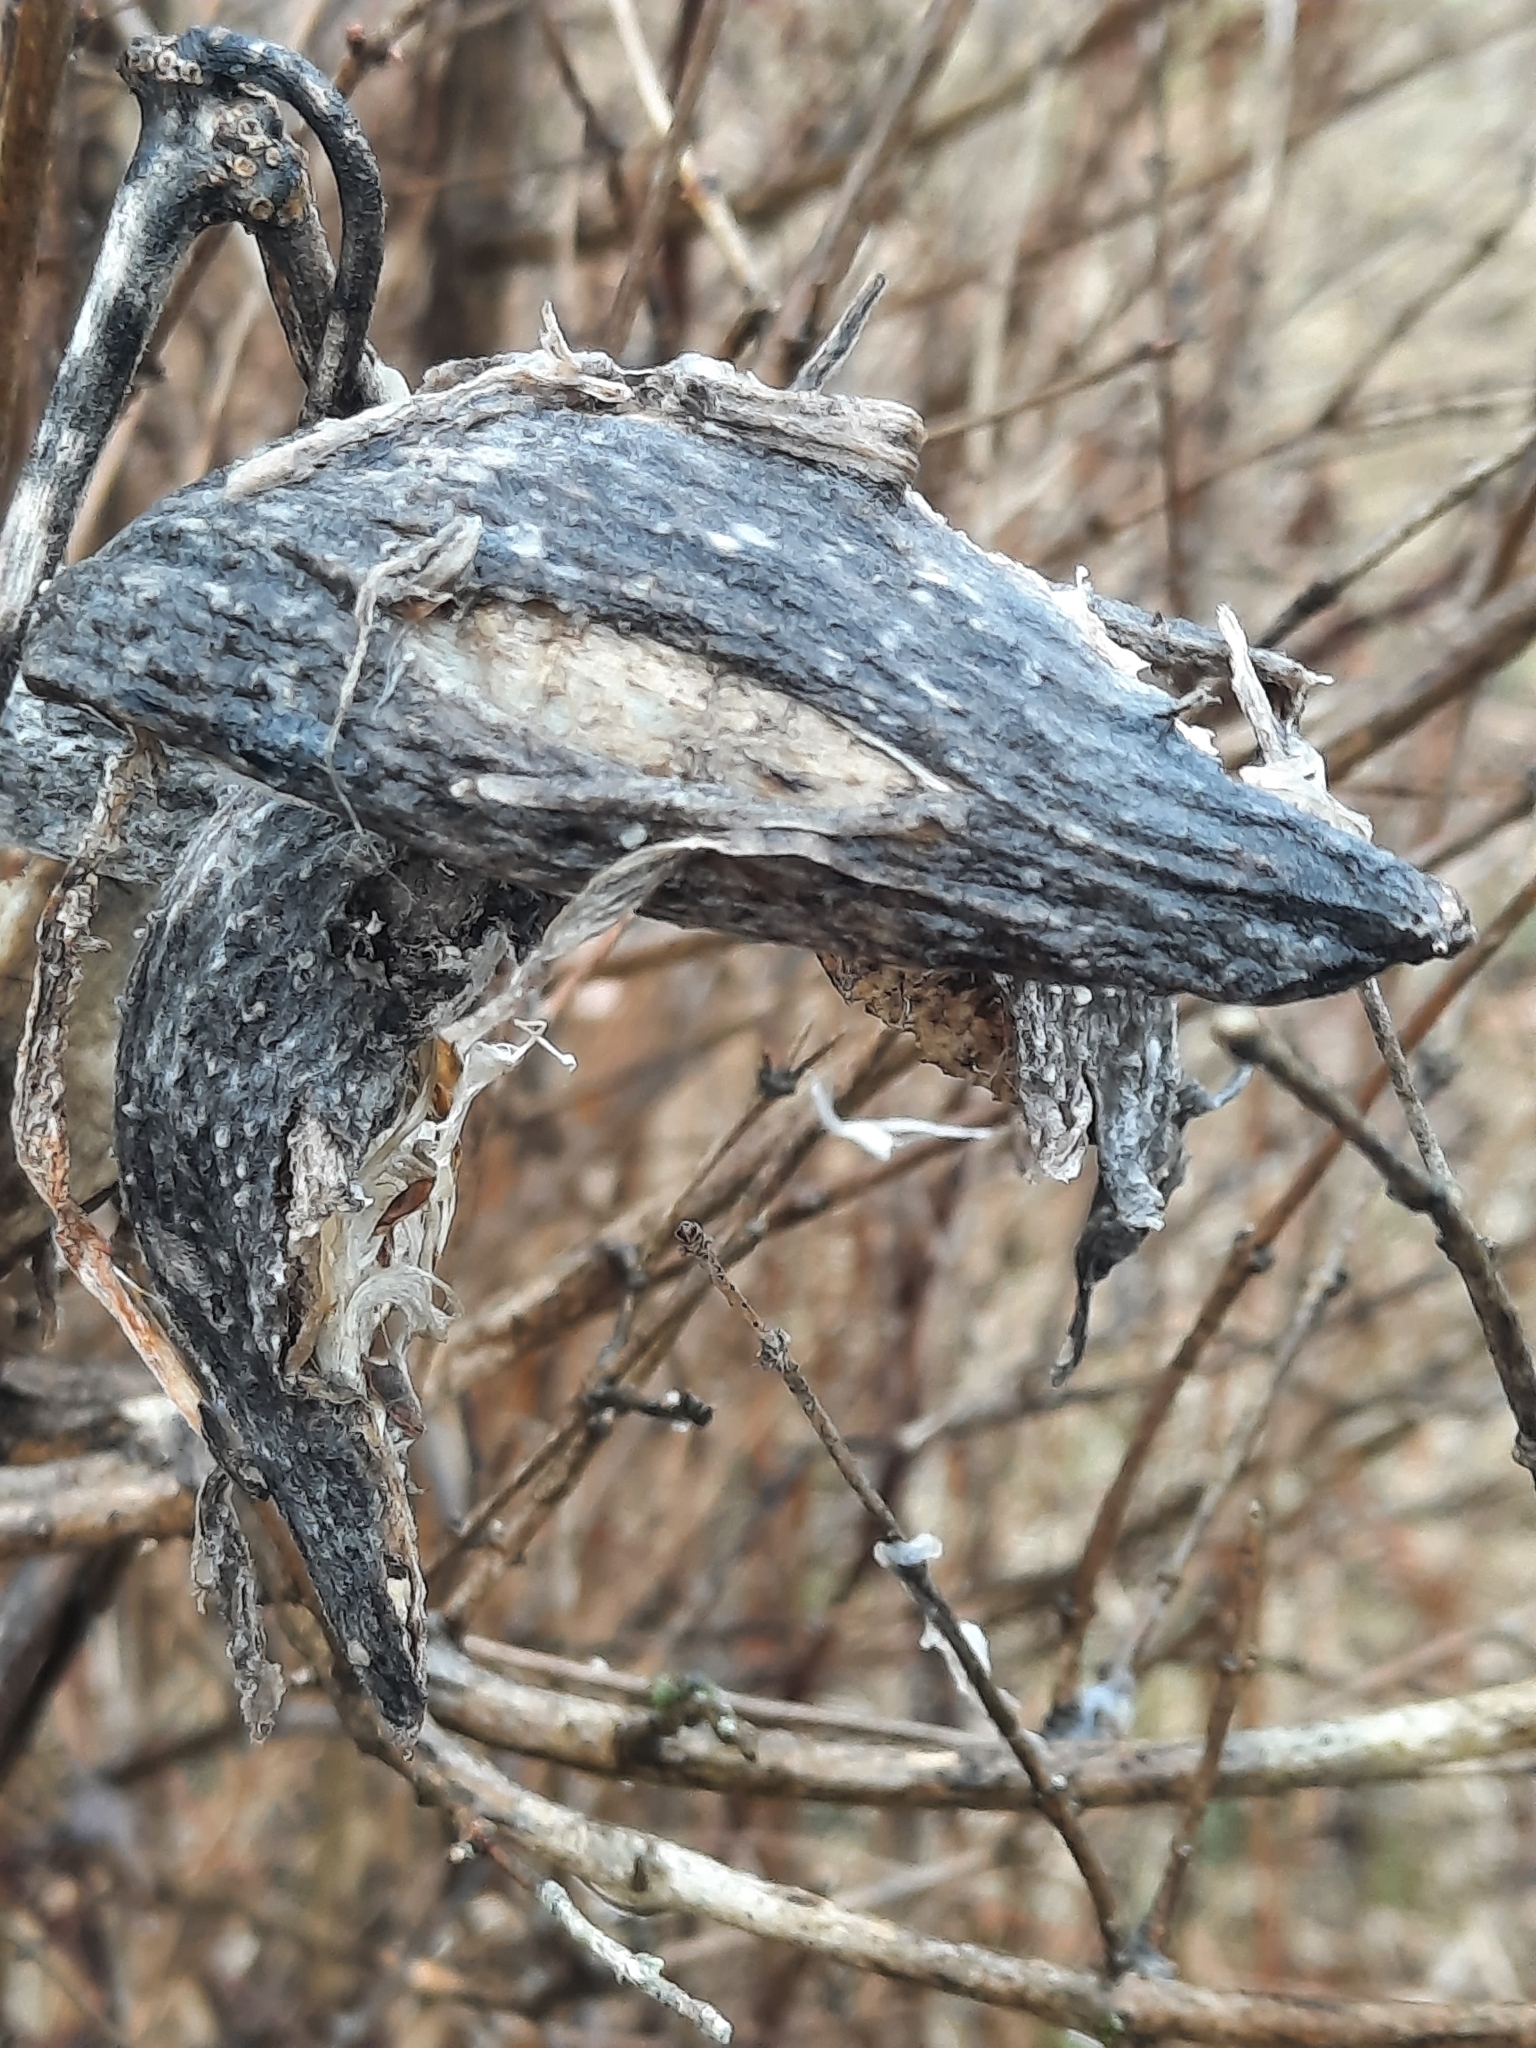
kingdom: Plantae
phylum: Tracheophyta
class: Magnoliopsida
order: Gentianales
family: Apocynaceae
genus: Asclepias
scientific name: Asclepias syriaca
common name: Common milkweed
